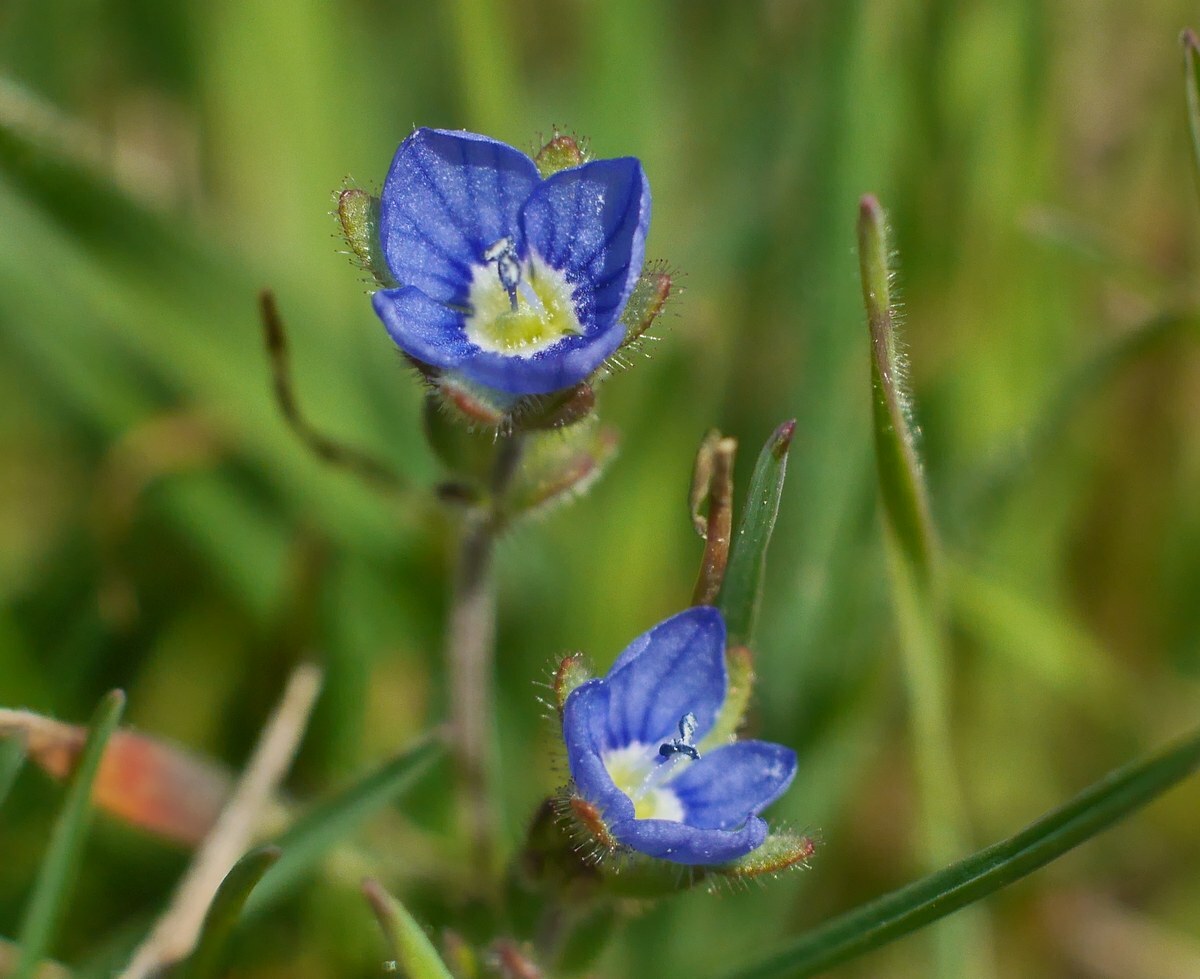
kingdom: Plantae
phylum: Tracheophyta
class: Magnoliopsida
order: Lamiales
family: Plantaginaceae
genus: Veronica
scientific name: Veronica triphyllos
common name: Fingered speedwell
